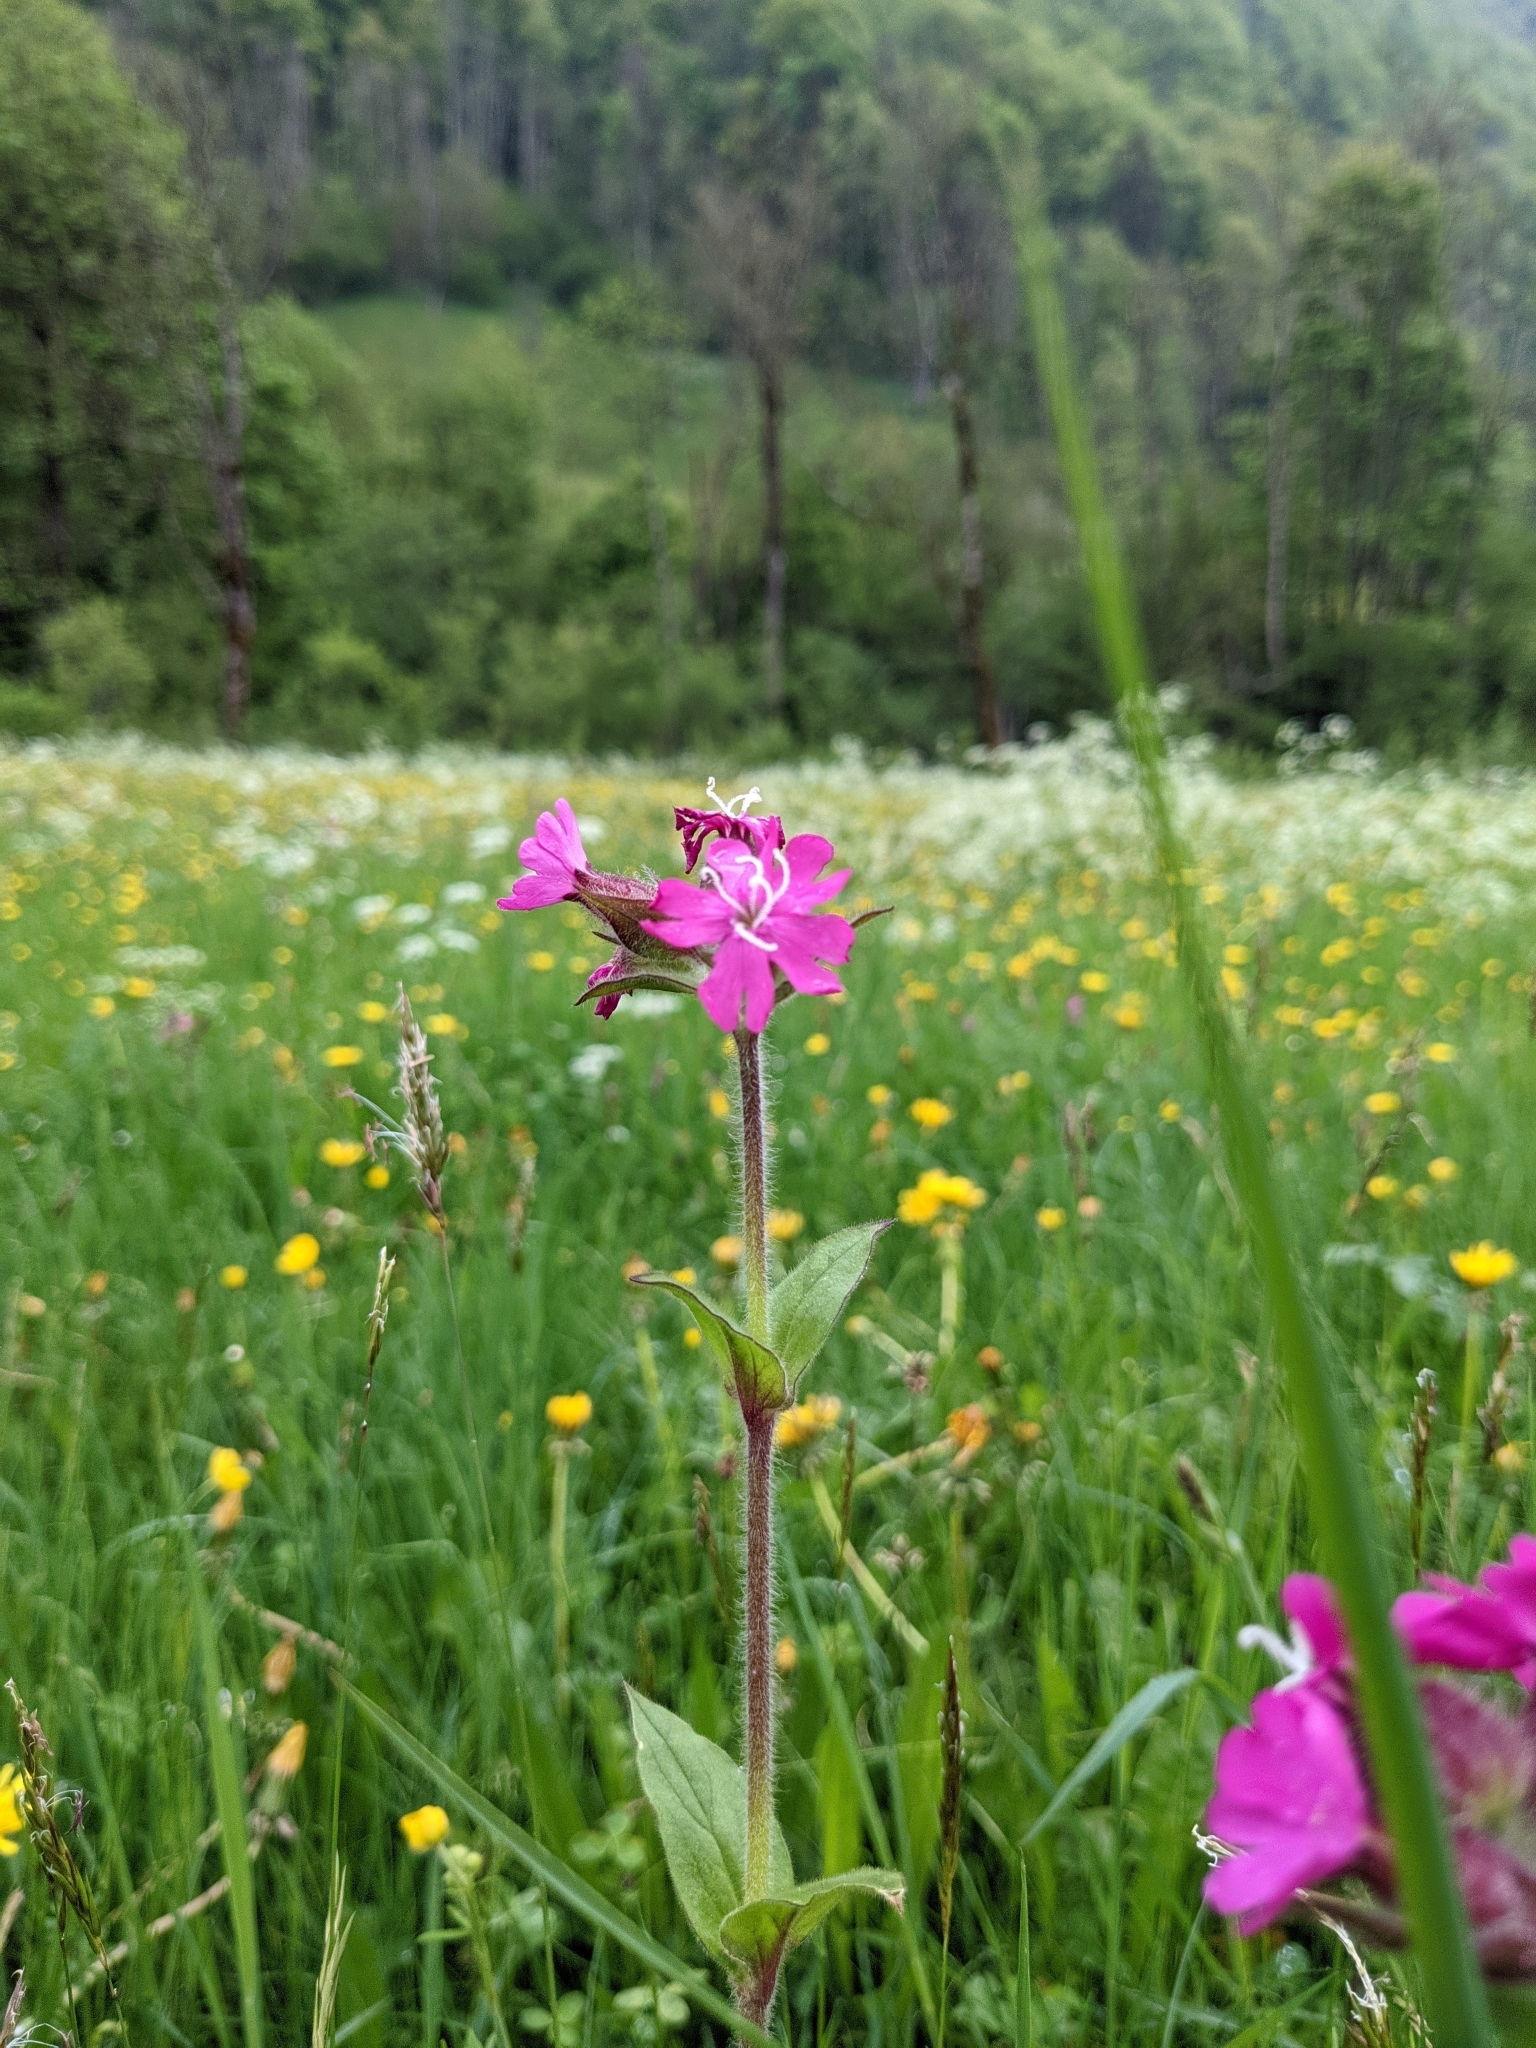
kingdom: Plantae
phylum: Tracheophyta
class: Magnoliopsida
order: Caryophyllales
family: Caryophyllaceae
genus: Silene
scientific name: Silene dioica
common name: Red campion
